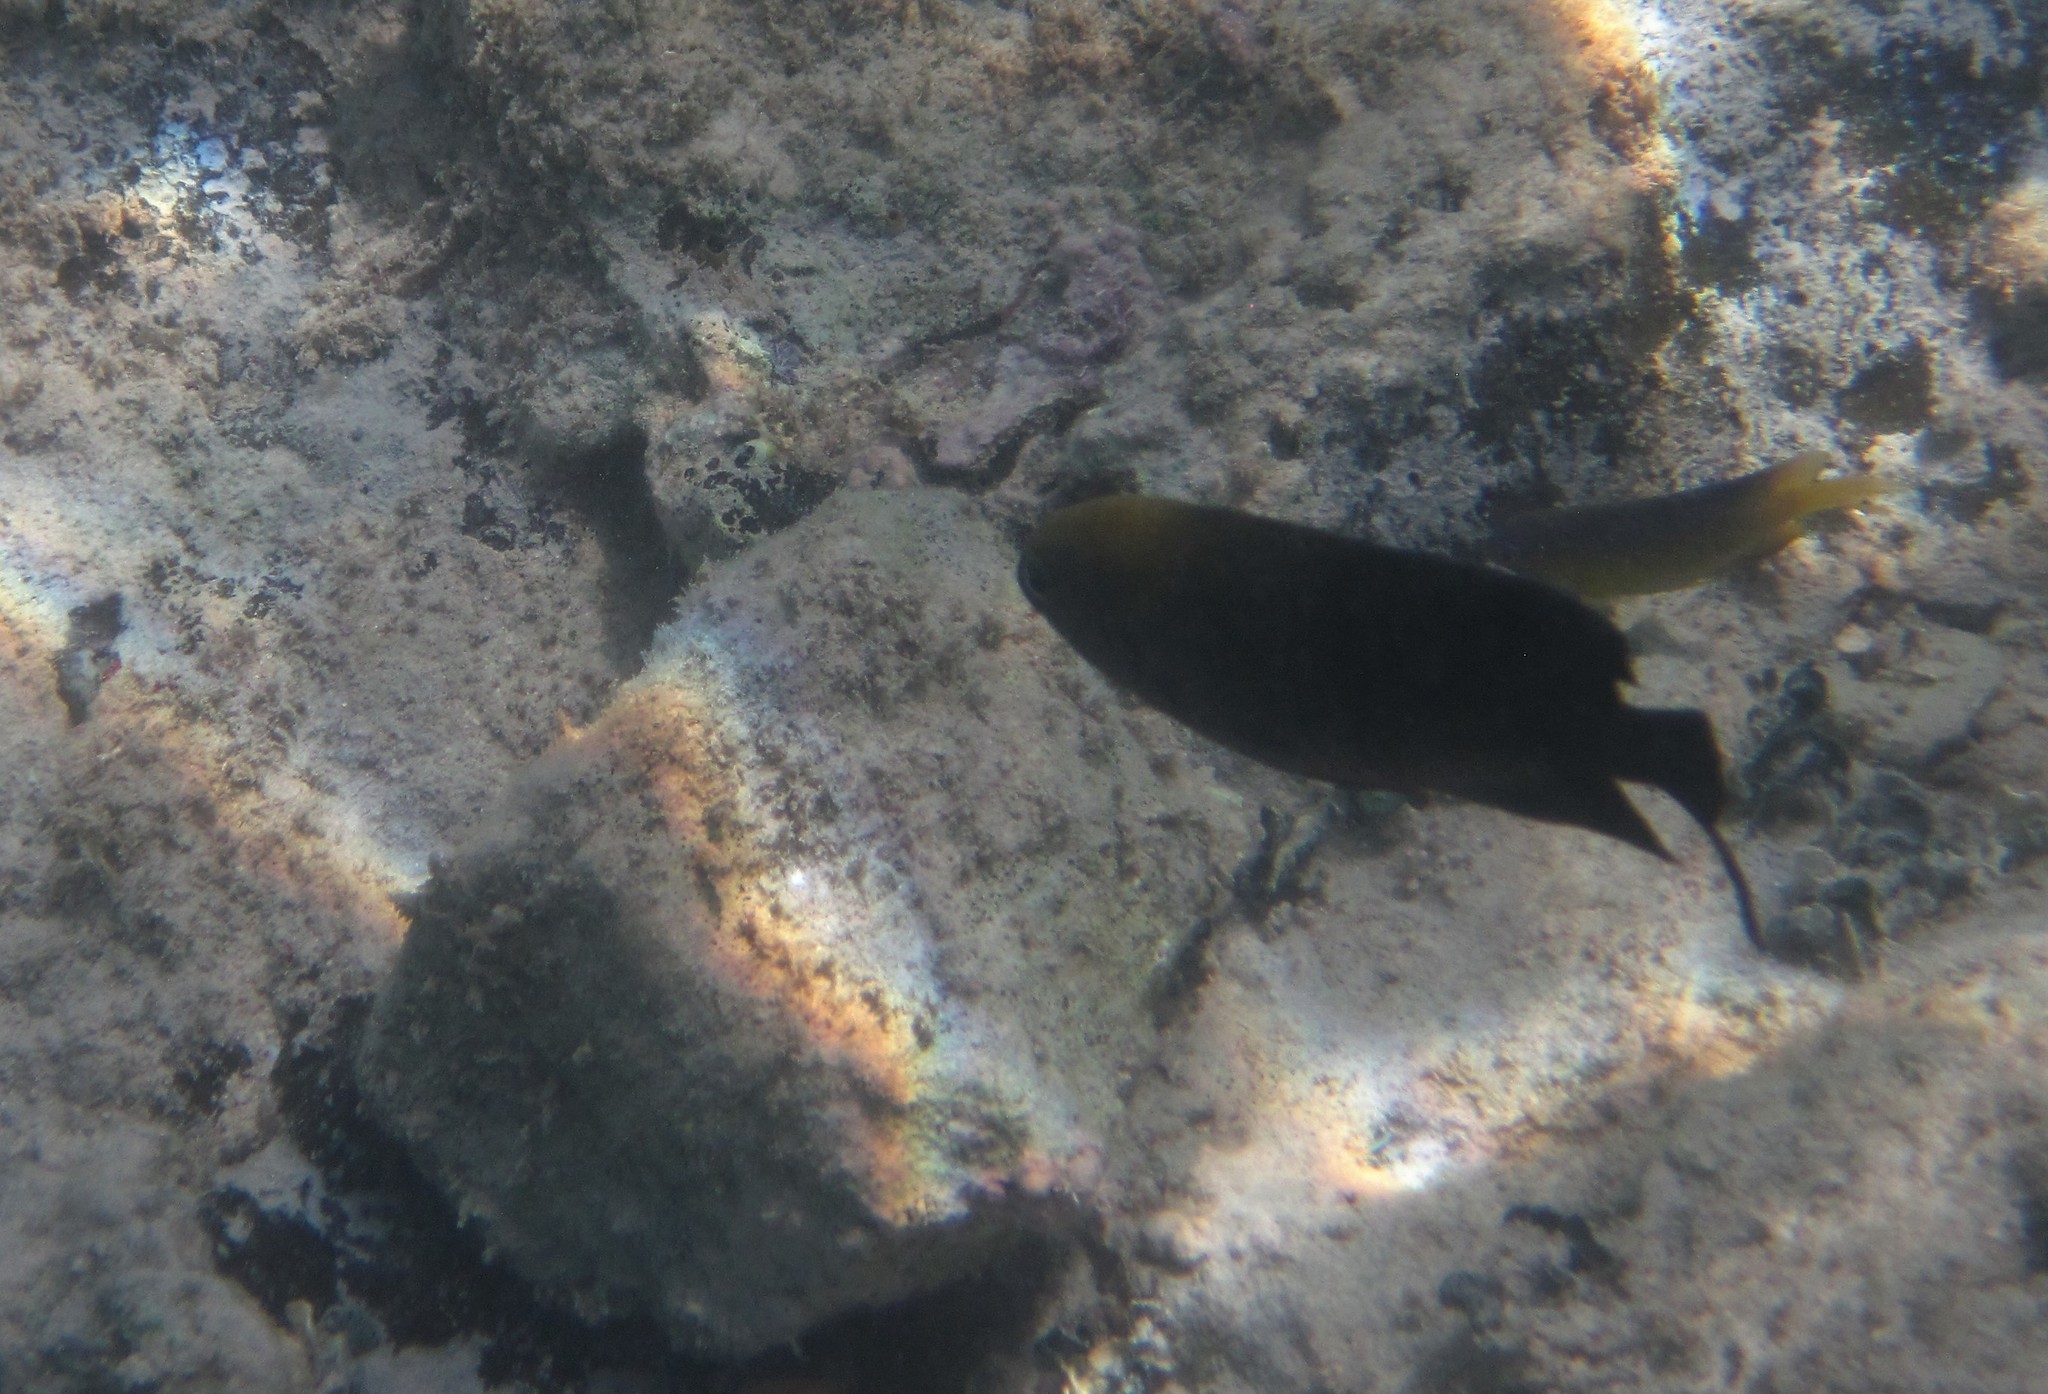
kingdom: Animalia
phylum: Chordata
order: Perciformes
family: Pomacentridae
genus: Stegastes
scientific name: Stegastes leucostictus
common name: Beaugregory
